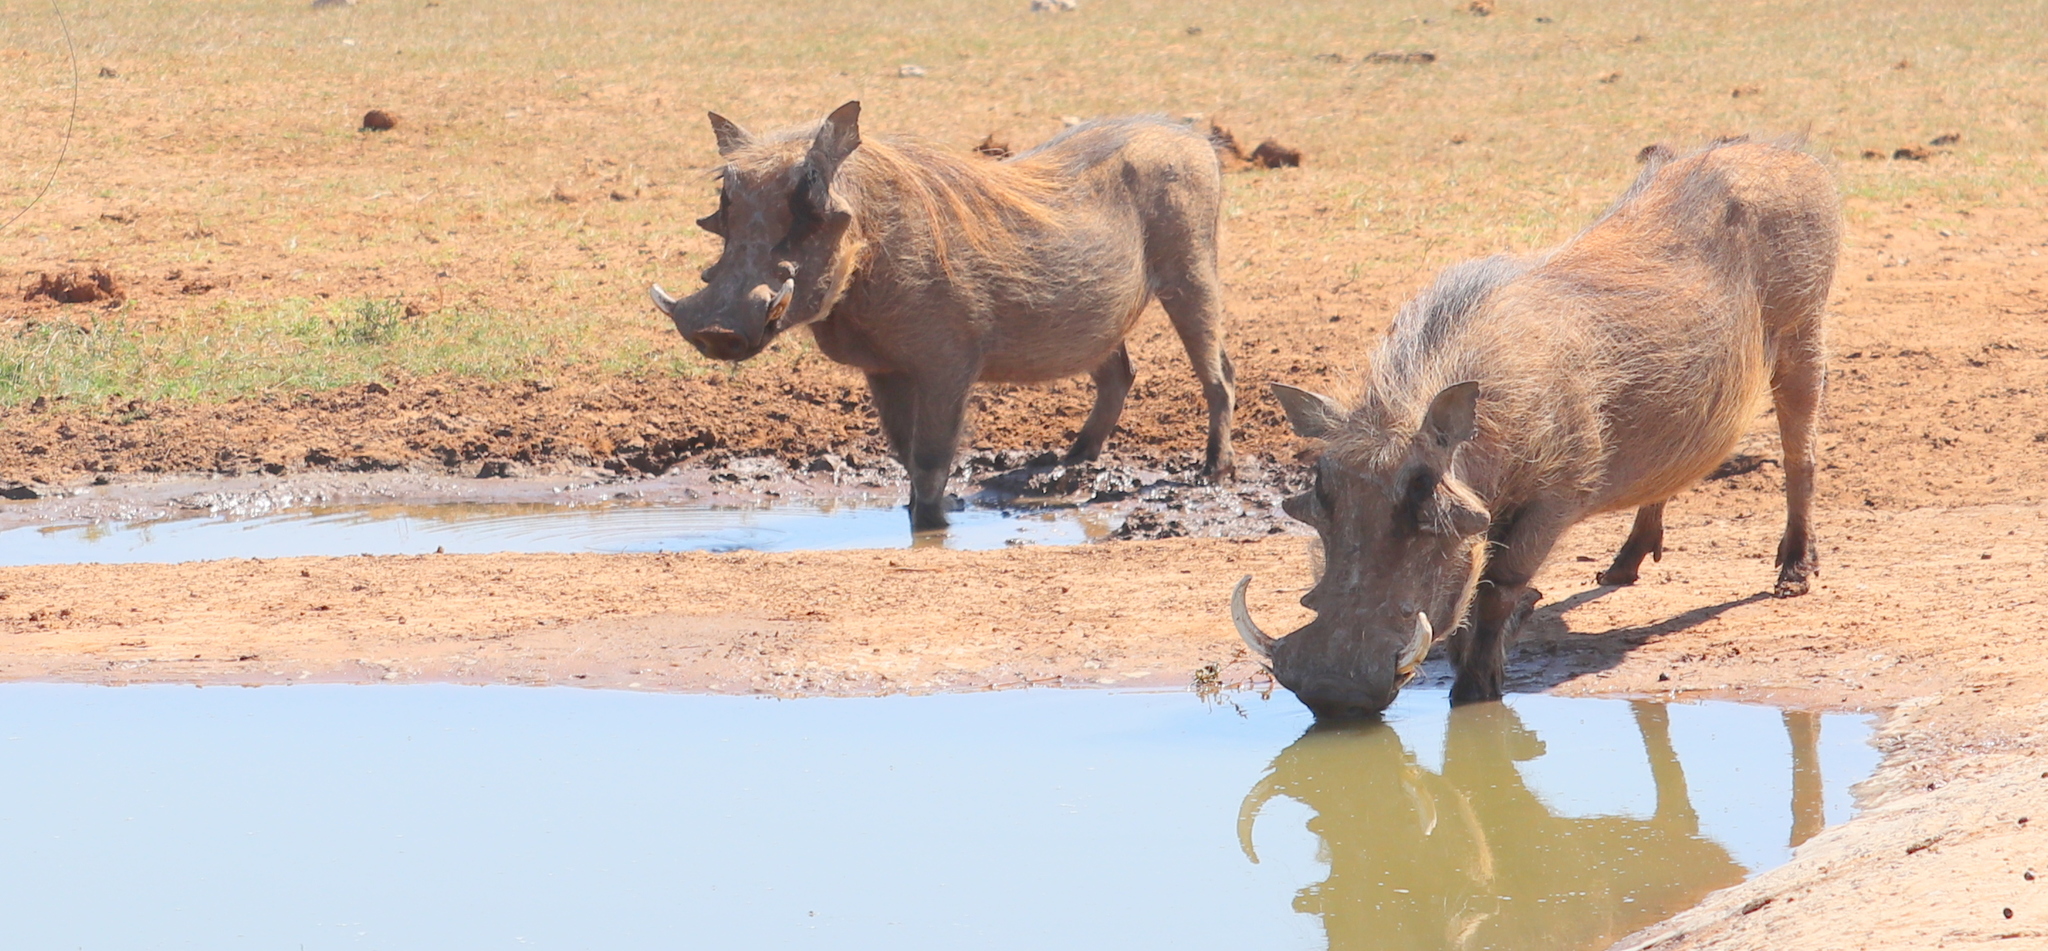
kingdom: Animalia
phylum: Chordata
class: Mammalia
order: Artiodactyla
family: Suidae
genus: Phacochoerus
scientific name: Phacochoerus africanus
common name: Common warthog
